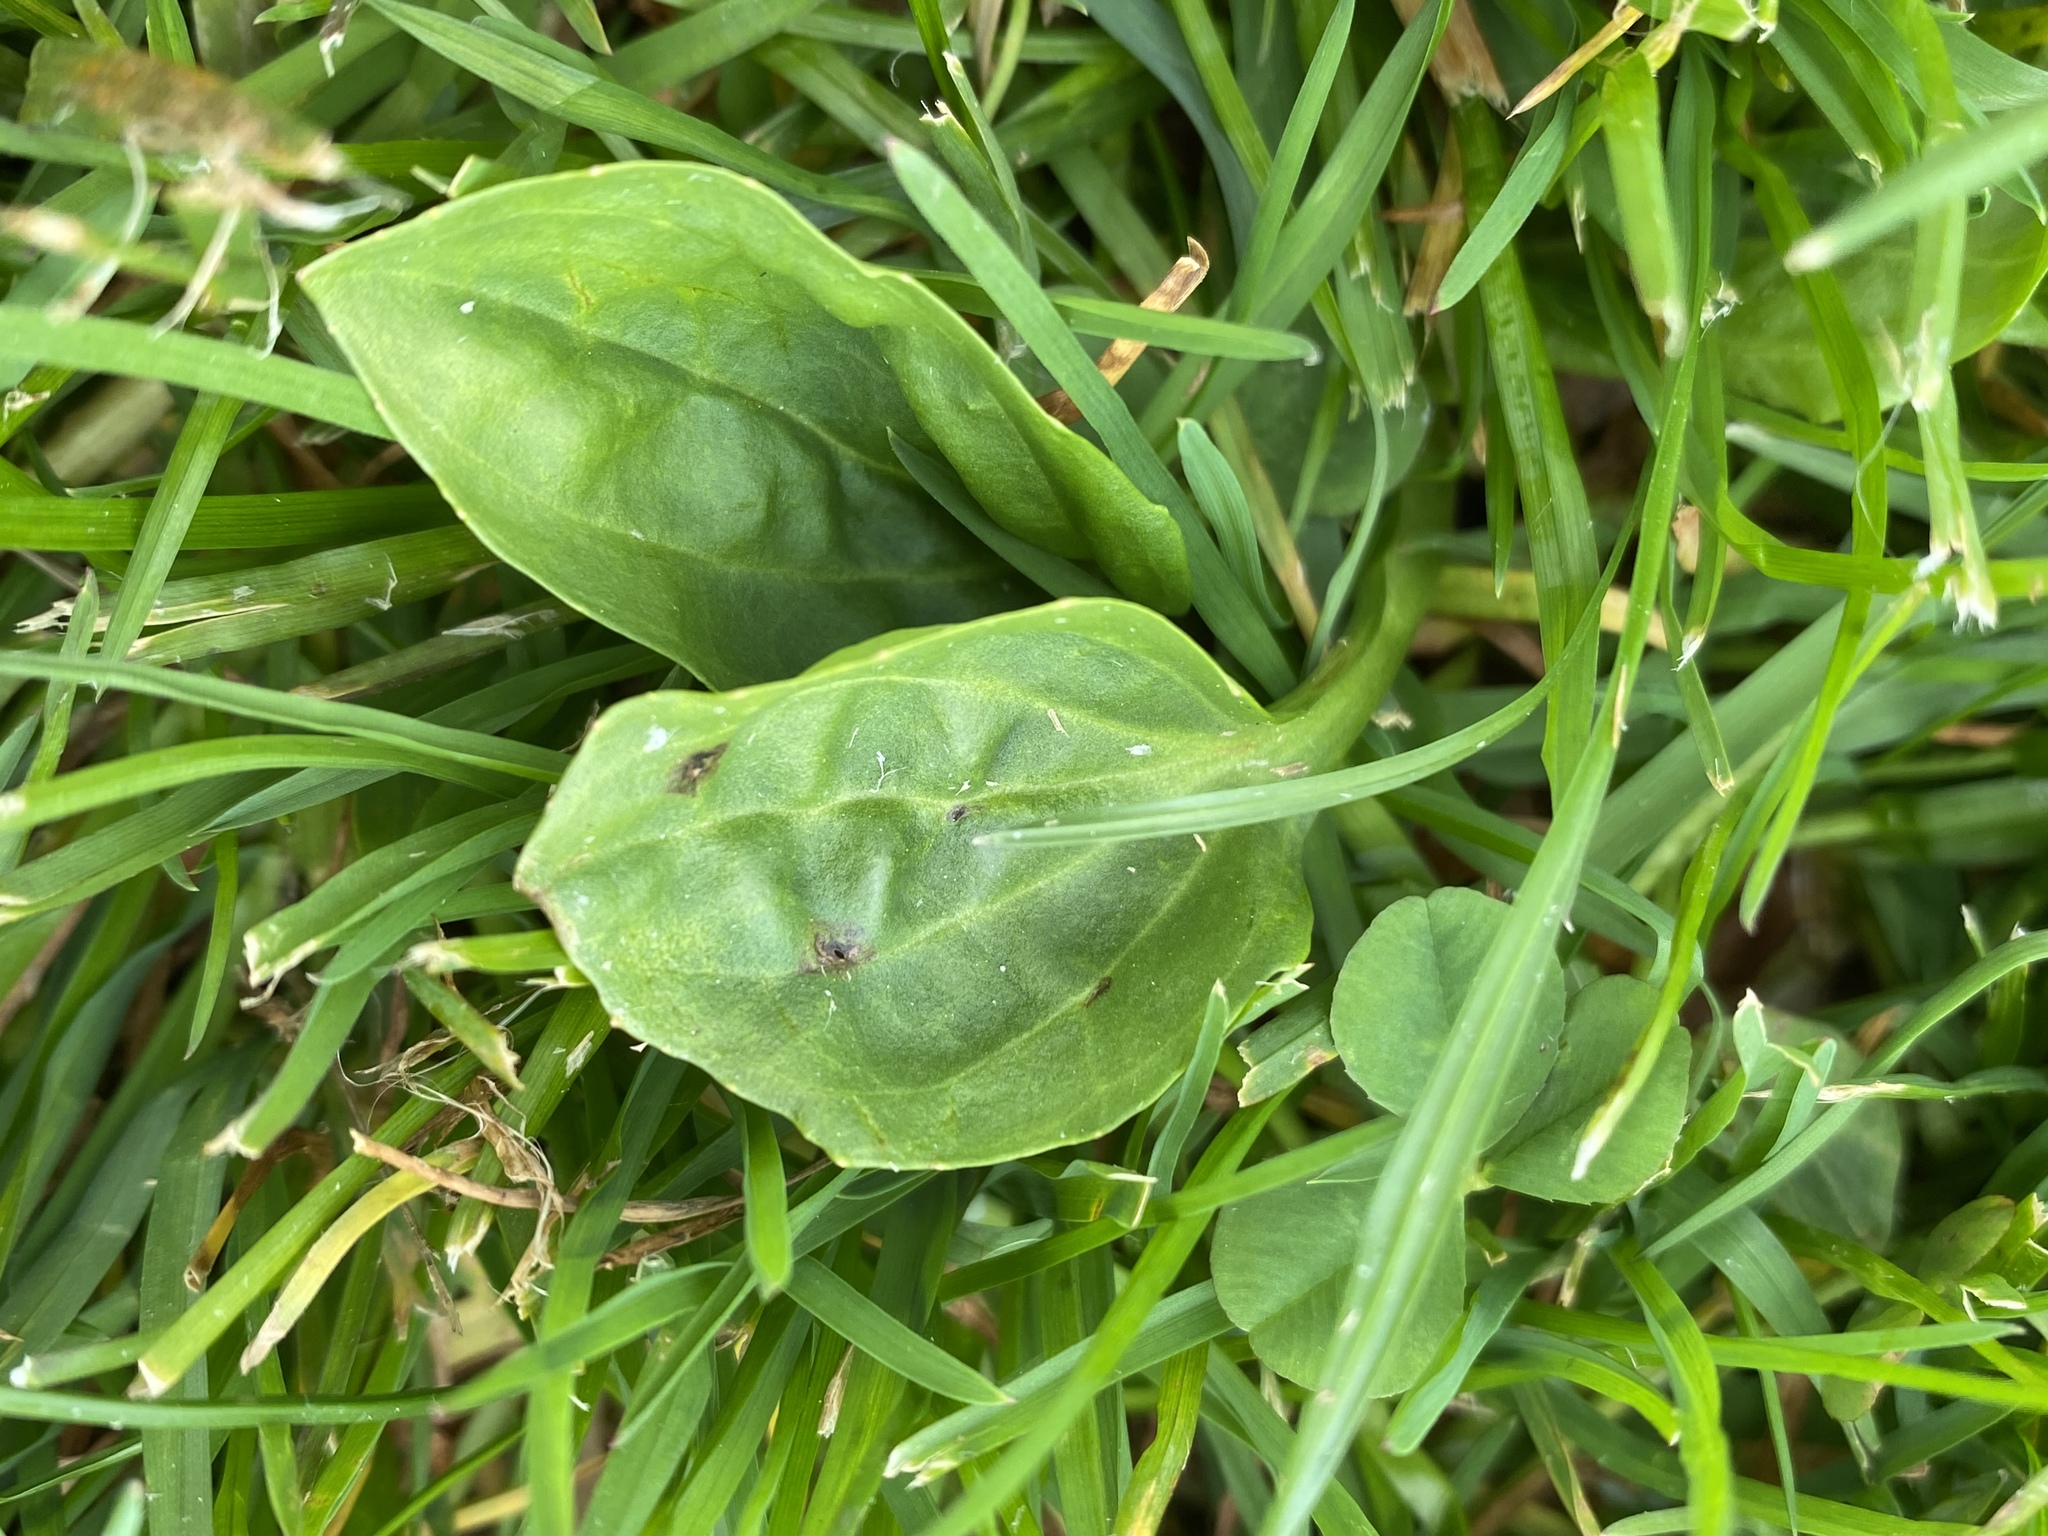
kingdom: Plantae
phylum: Tracheophyta
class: Magnoliopsida
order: Lamiales
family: Plantaginaceae
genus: Plantago
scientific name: Plantago major
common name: Common plantain
